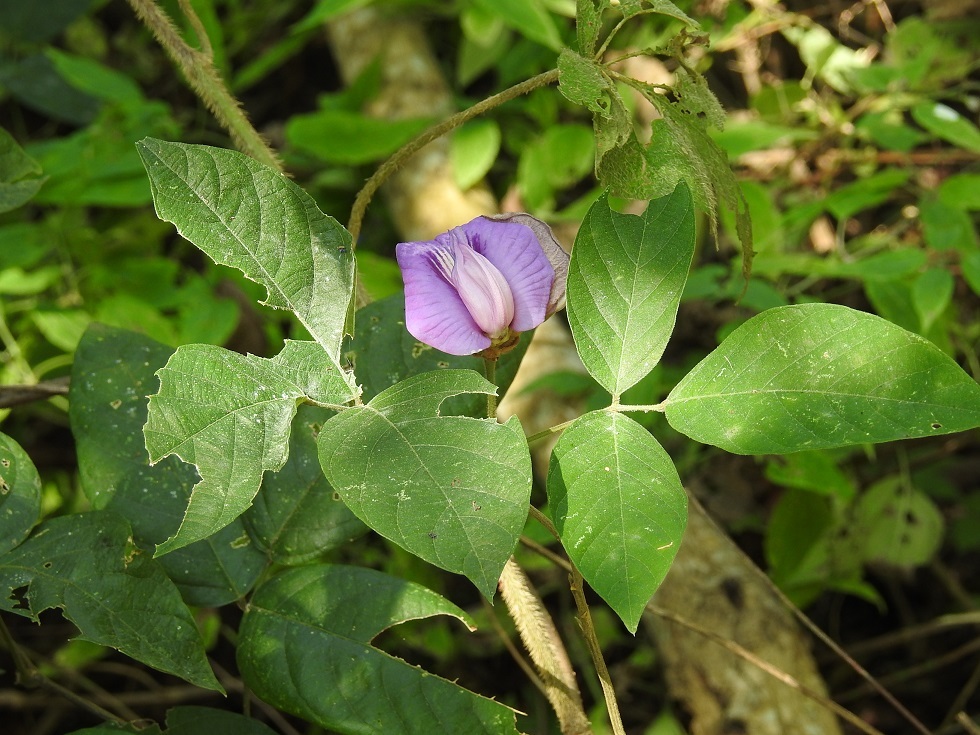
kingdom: Plantae
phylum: Tracheophyta
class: Magnoliopsida
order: Fabales
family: Fabaceae
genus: Centrosema
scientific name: Centrosema virginianum
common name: Butterfly-pea
